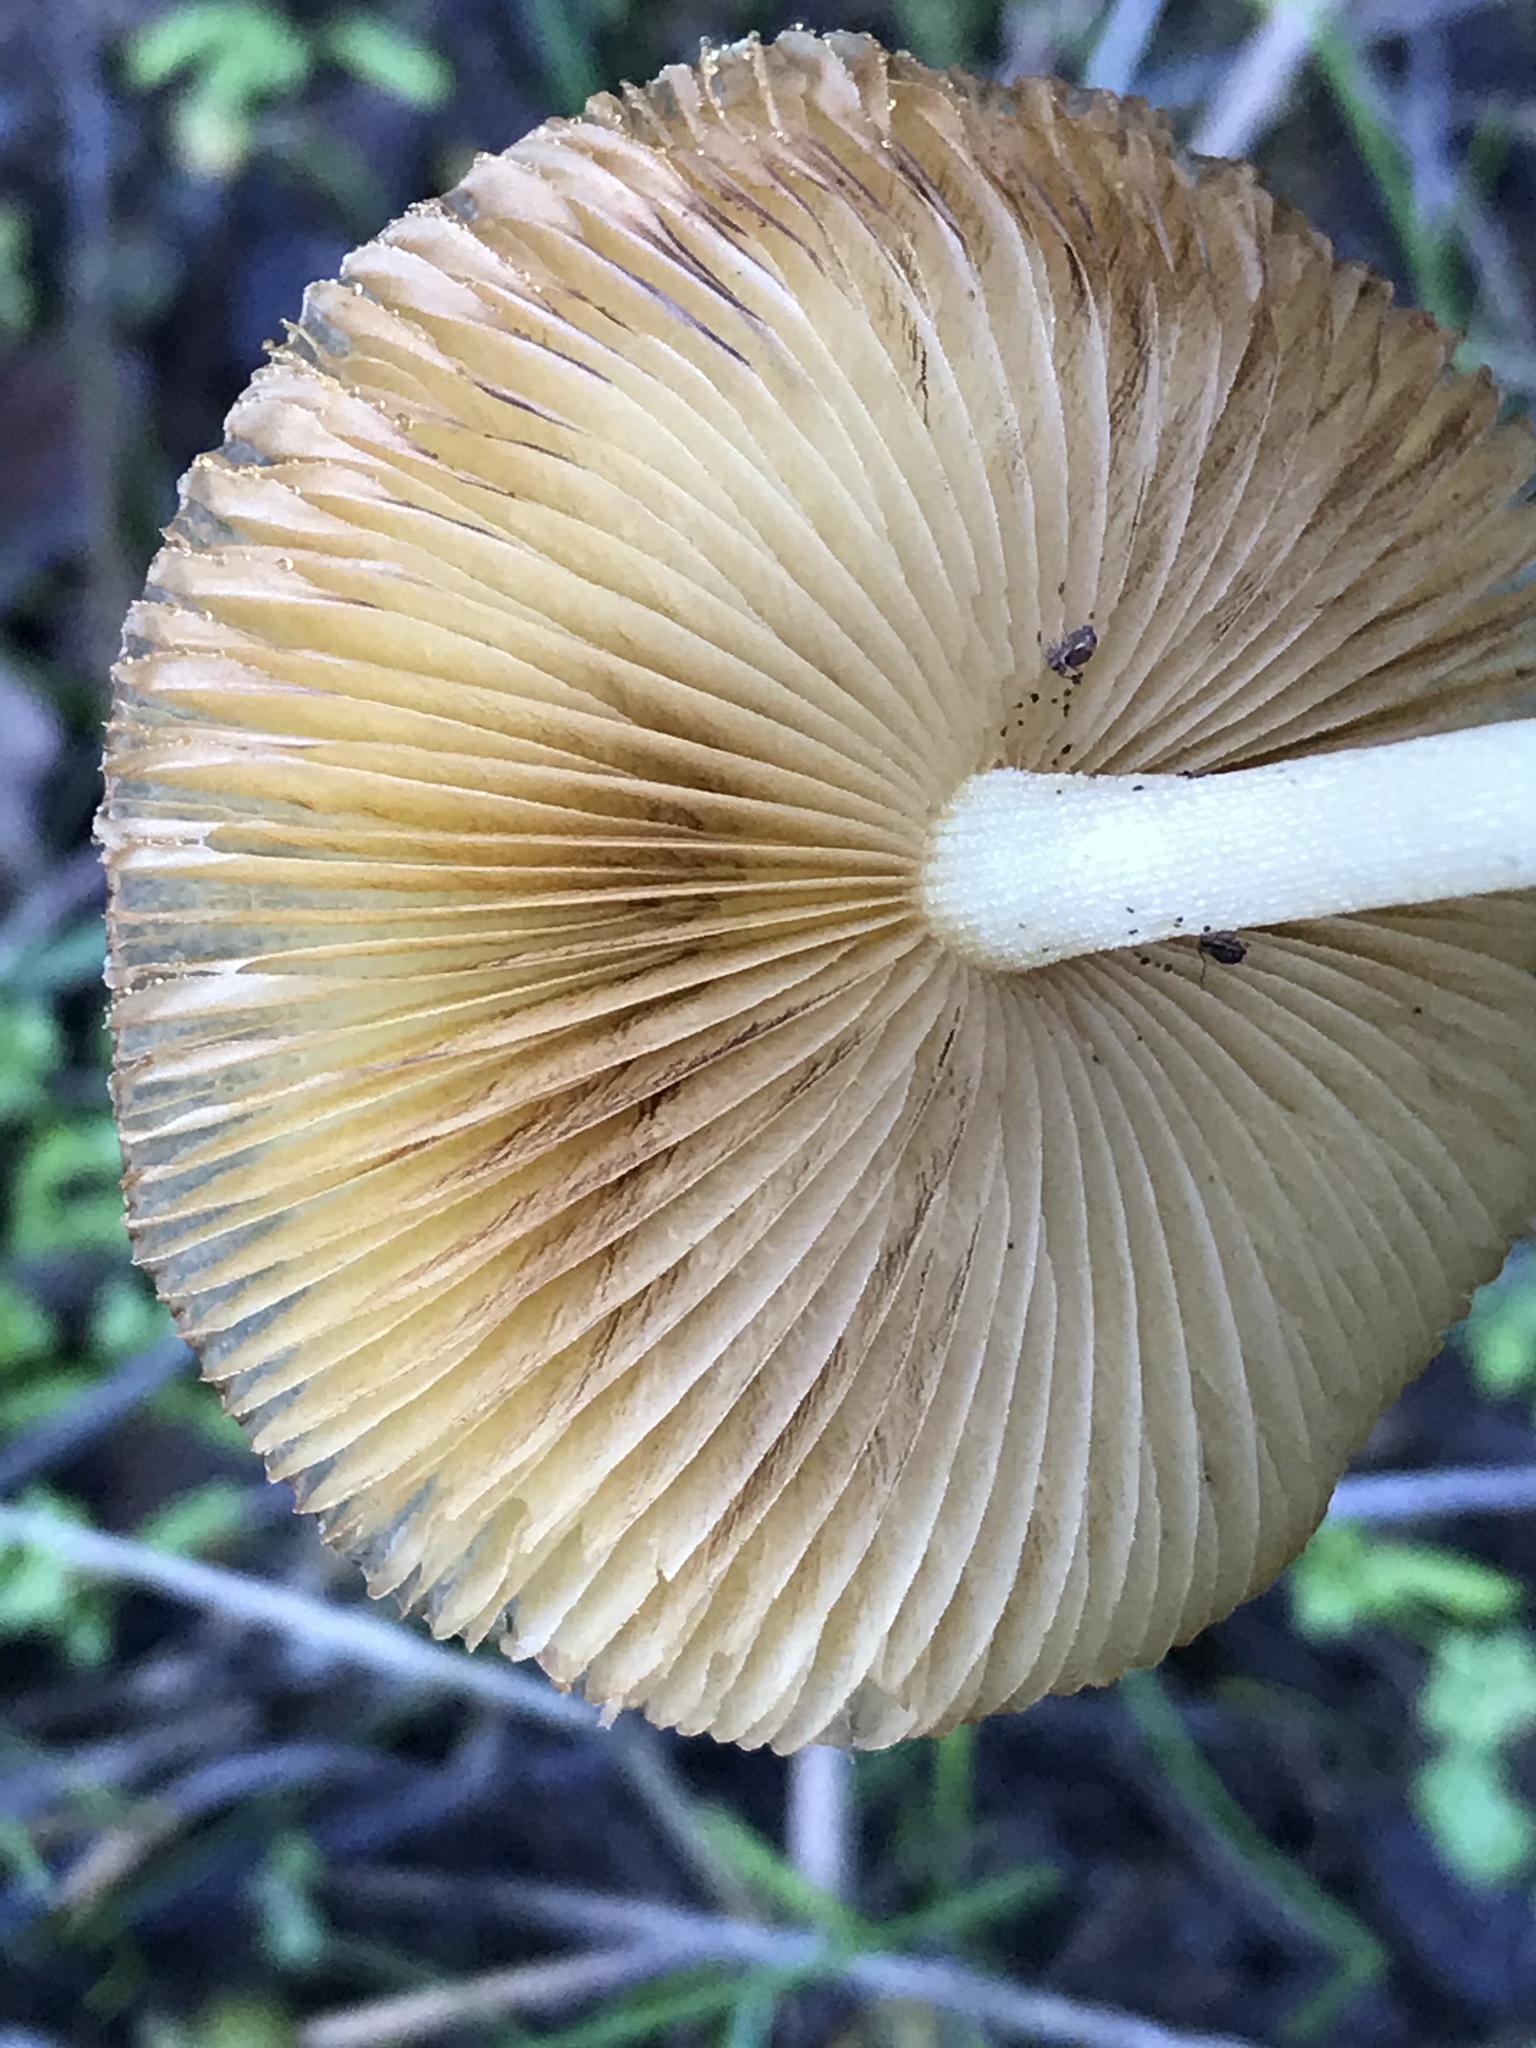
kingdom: Fungi
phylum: Basidiomycota
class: Agaricomycetes
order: Agaricales
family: Bolbitiaceae
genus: Bolbitius
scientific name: Bolbitius titubans
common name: Yellow fieldcap
